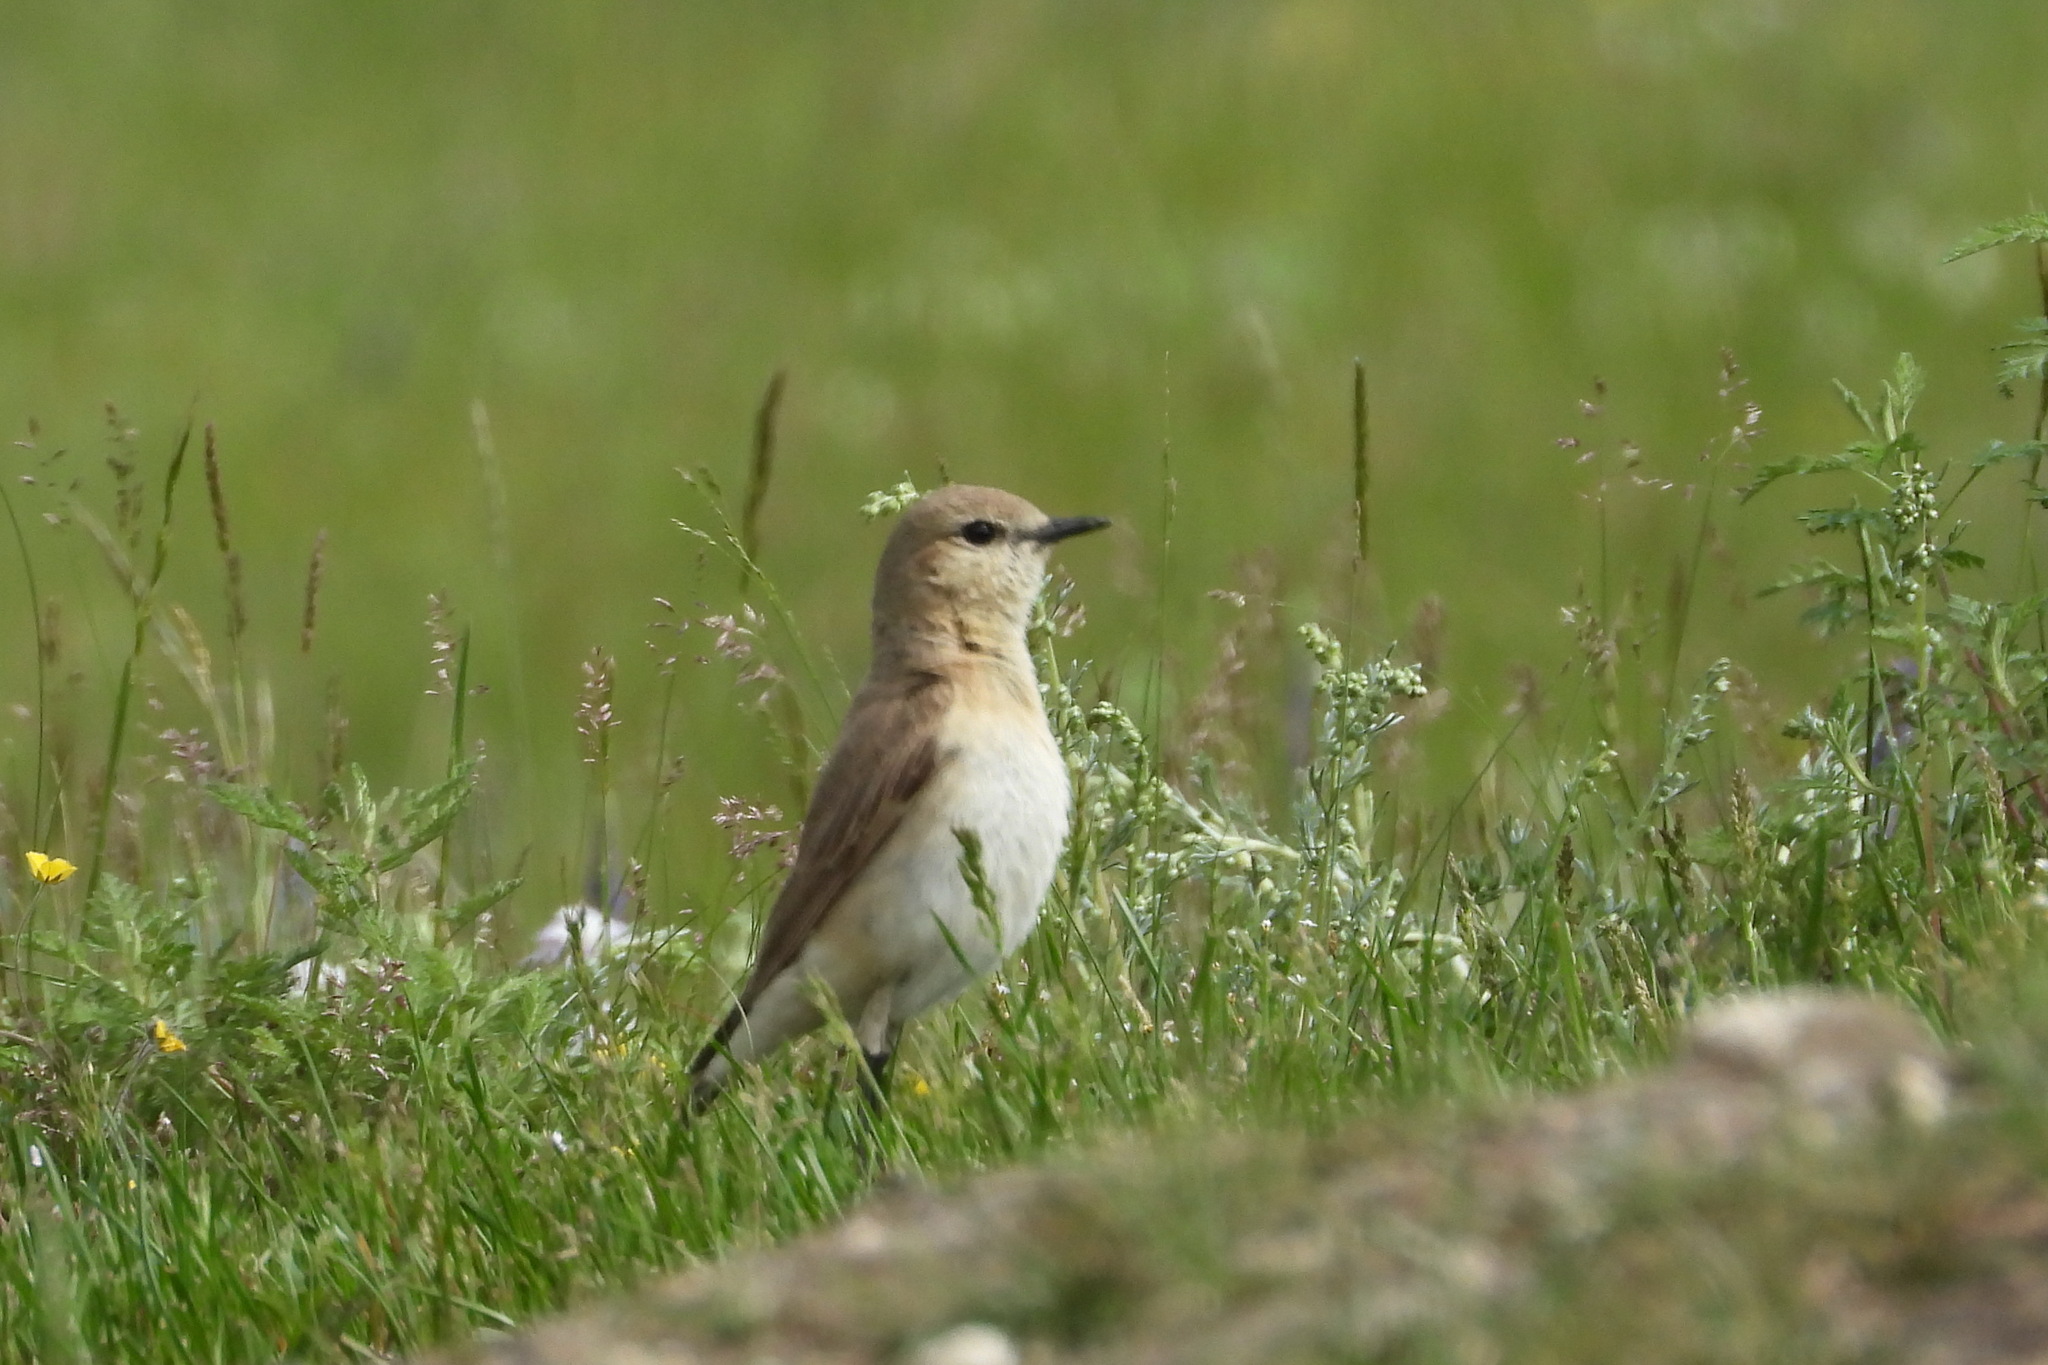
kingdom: Animalia
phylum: Chordata
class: Aves
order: Passeriformes
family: Muscicapidae
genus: Oenanthe
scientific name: Oenanthe isabellina
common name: Isabelline wheatear
